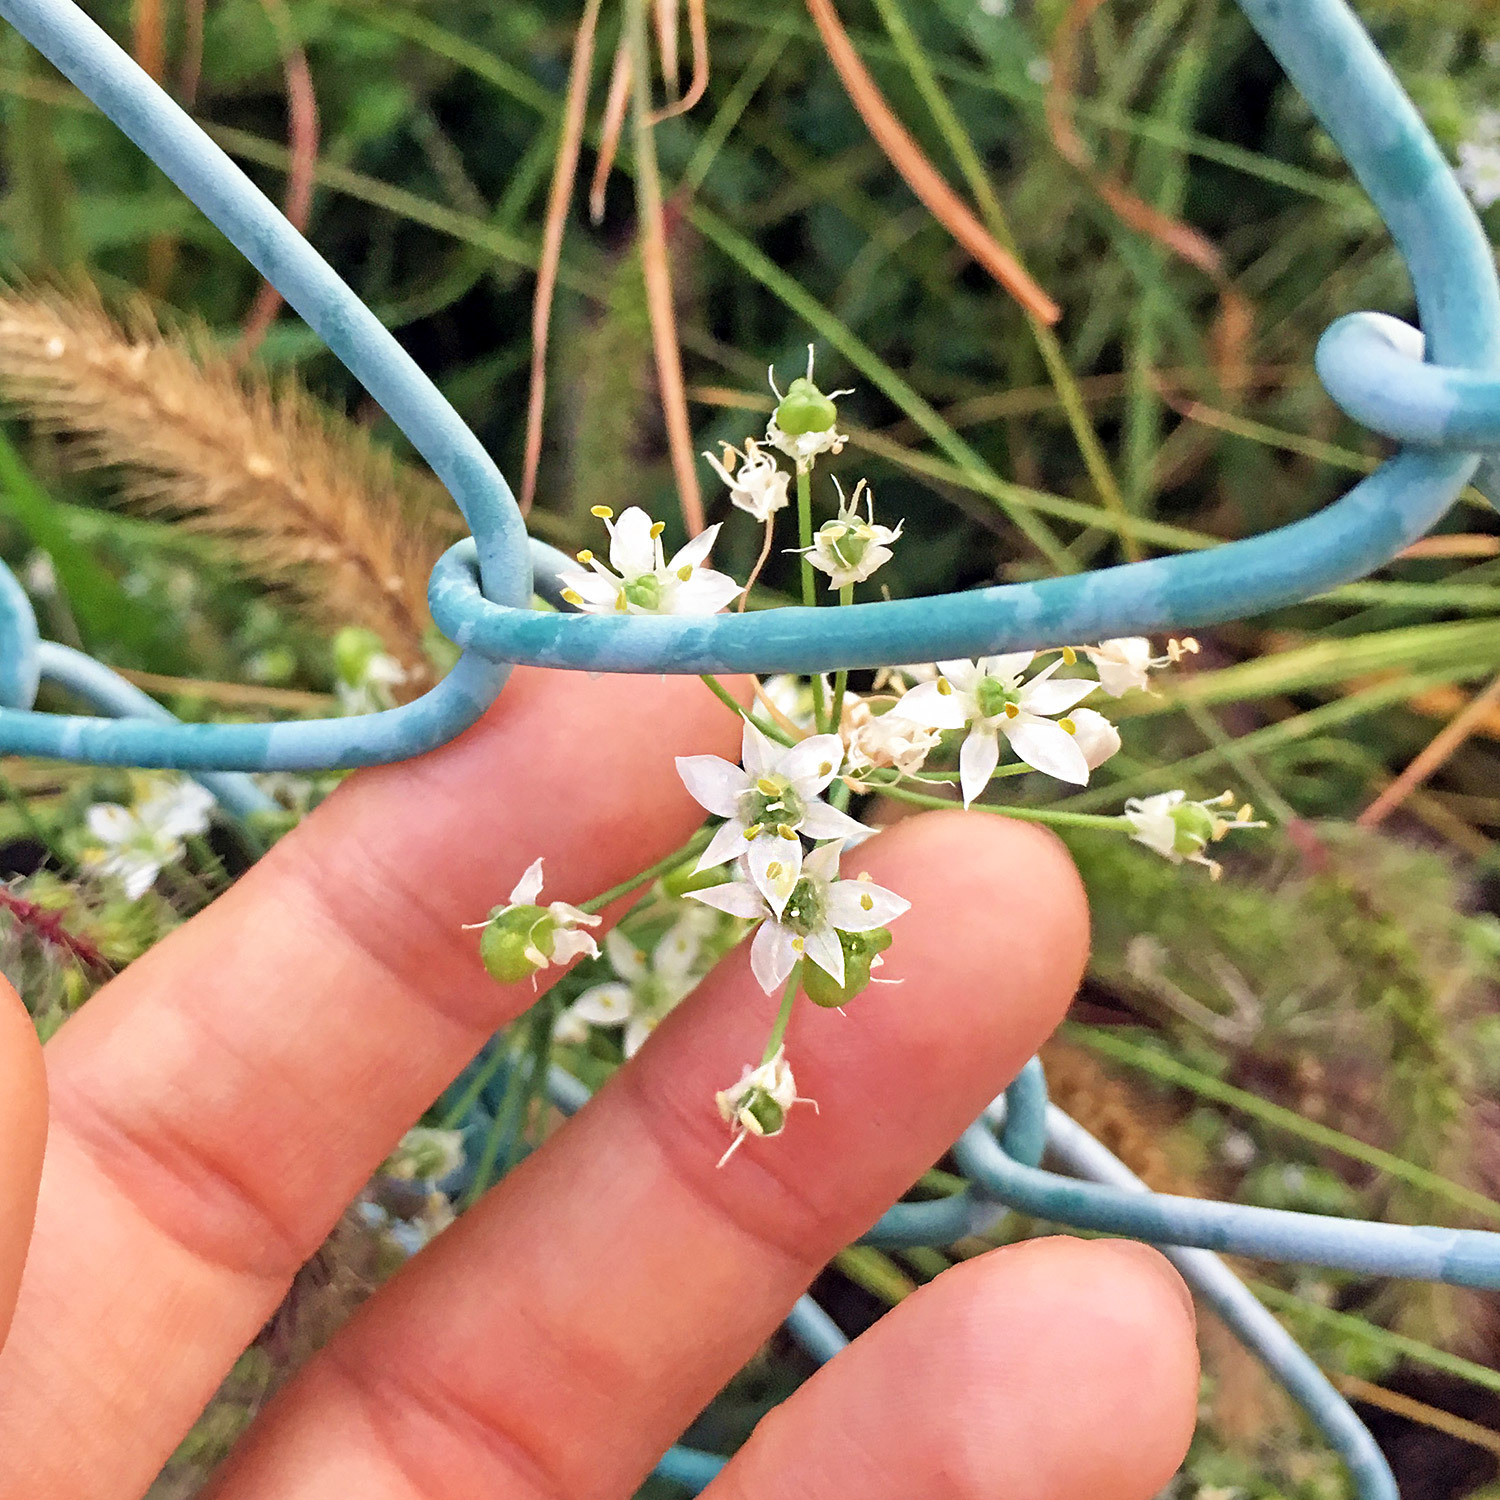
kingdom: Plantae
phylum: Tracheophyta
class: Liliopsida
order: Asparagales
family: Amaryllidaceae
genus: Allium
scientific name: Allium tuberosum
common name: Chinese chives
